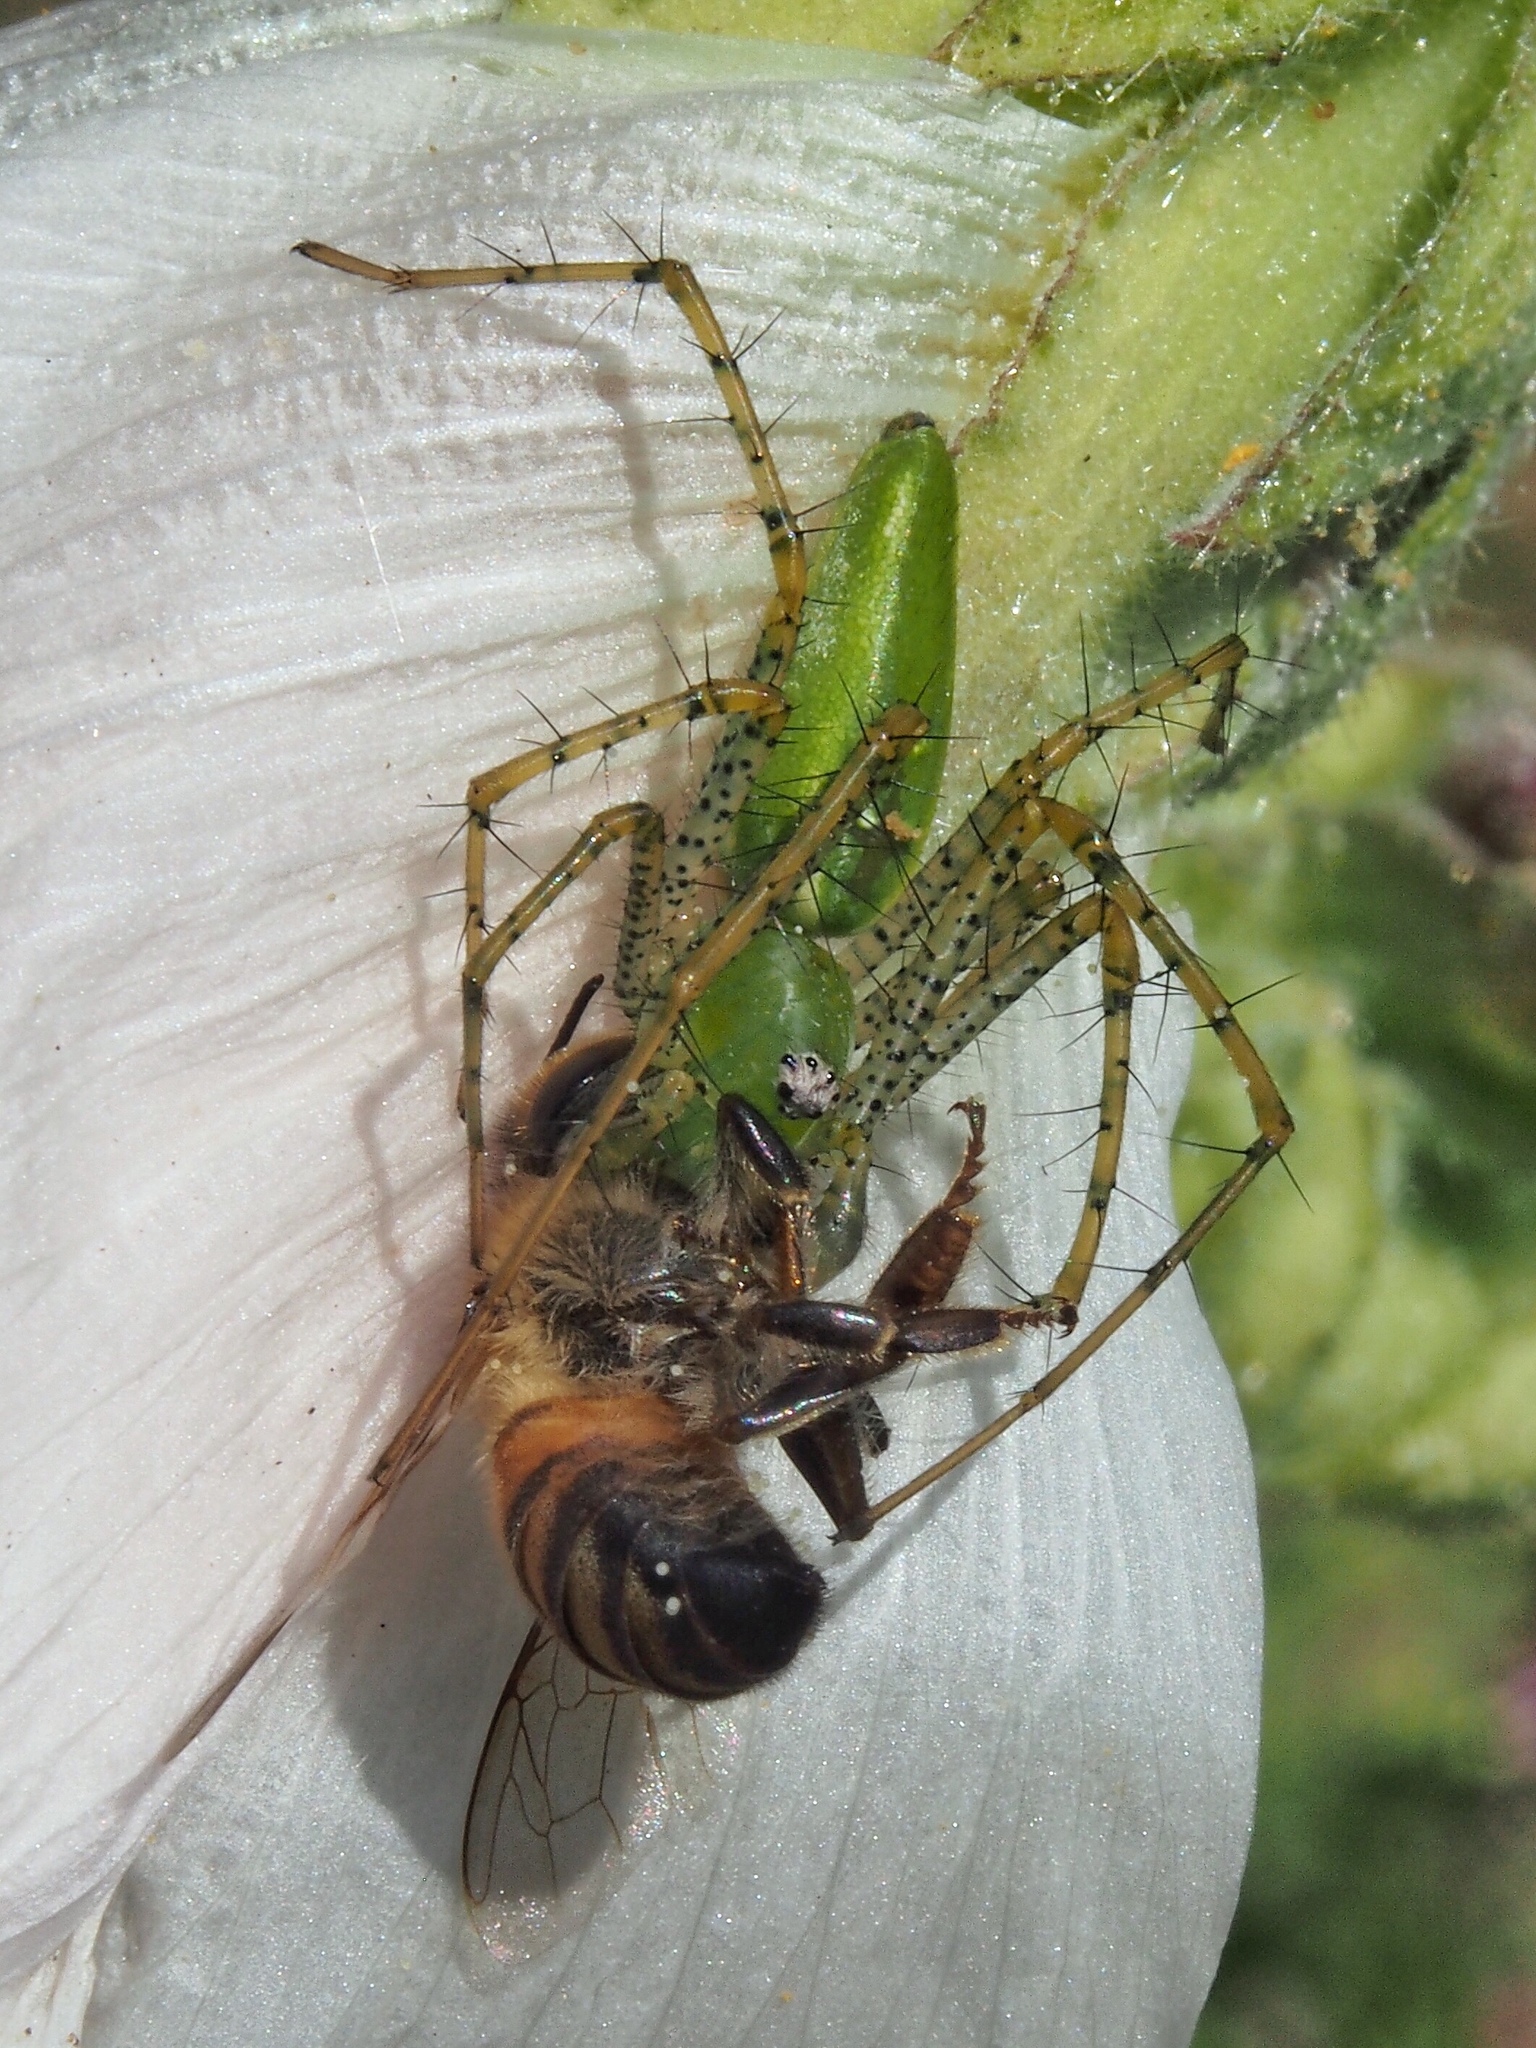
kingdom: Animalia
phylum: Arthropoda
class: Arachnida
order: Araneae
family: Oxyopidae
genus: Peucetia
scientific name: Peucetia viridans
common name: Lynx spiders
